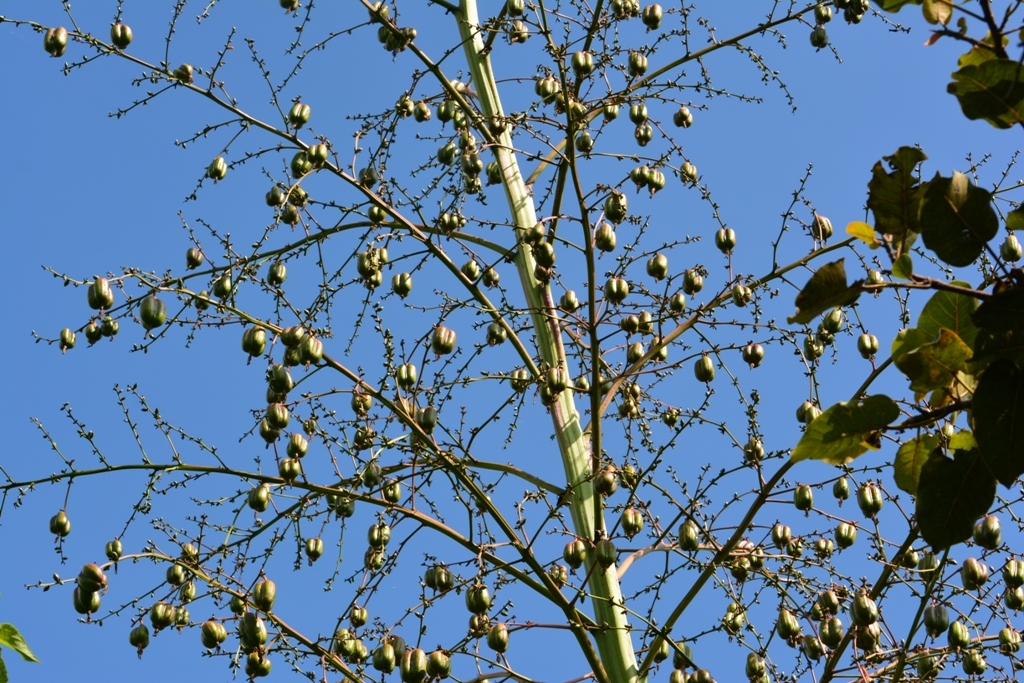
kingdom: Plantae
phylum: Tracheophyta
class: Liliopsida
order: Asparagales
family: Asparagaceae
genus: Furcraea
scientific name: Furcraea guatemalensis
